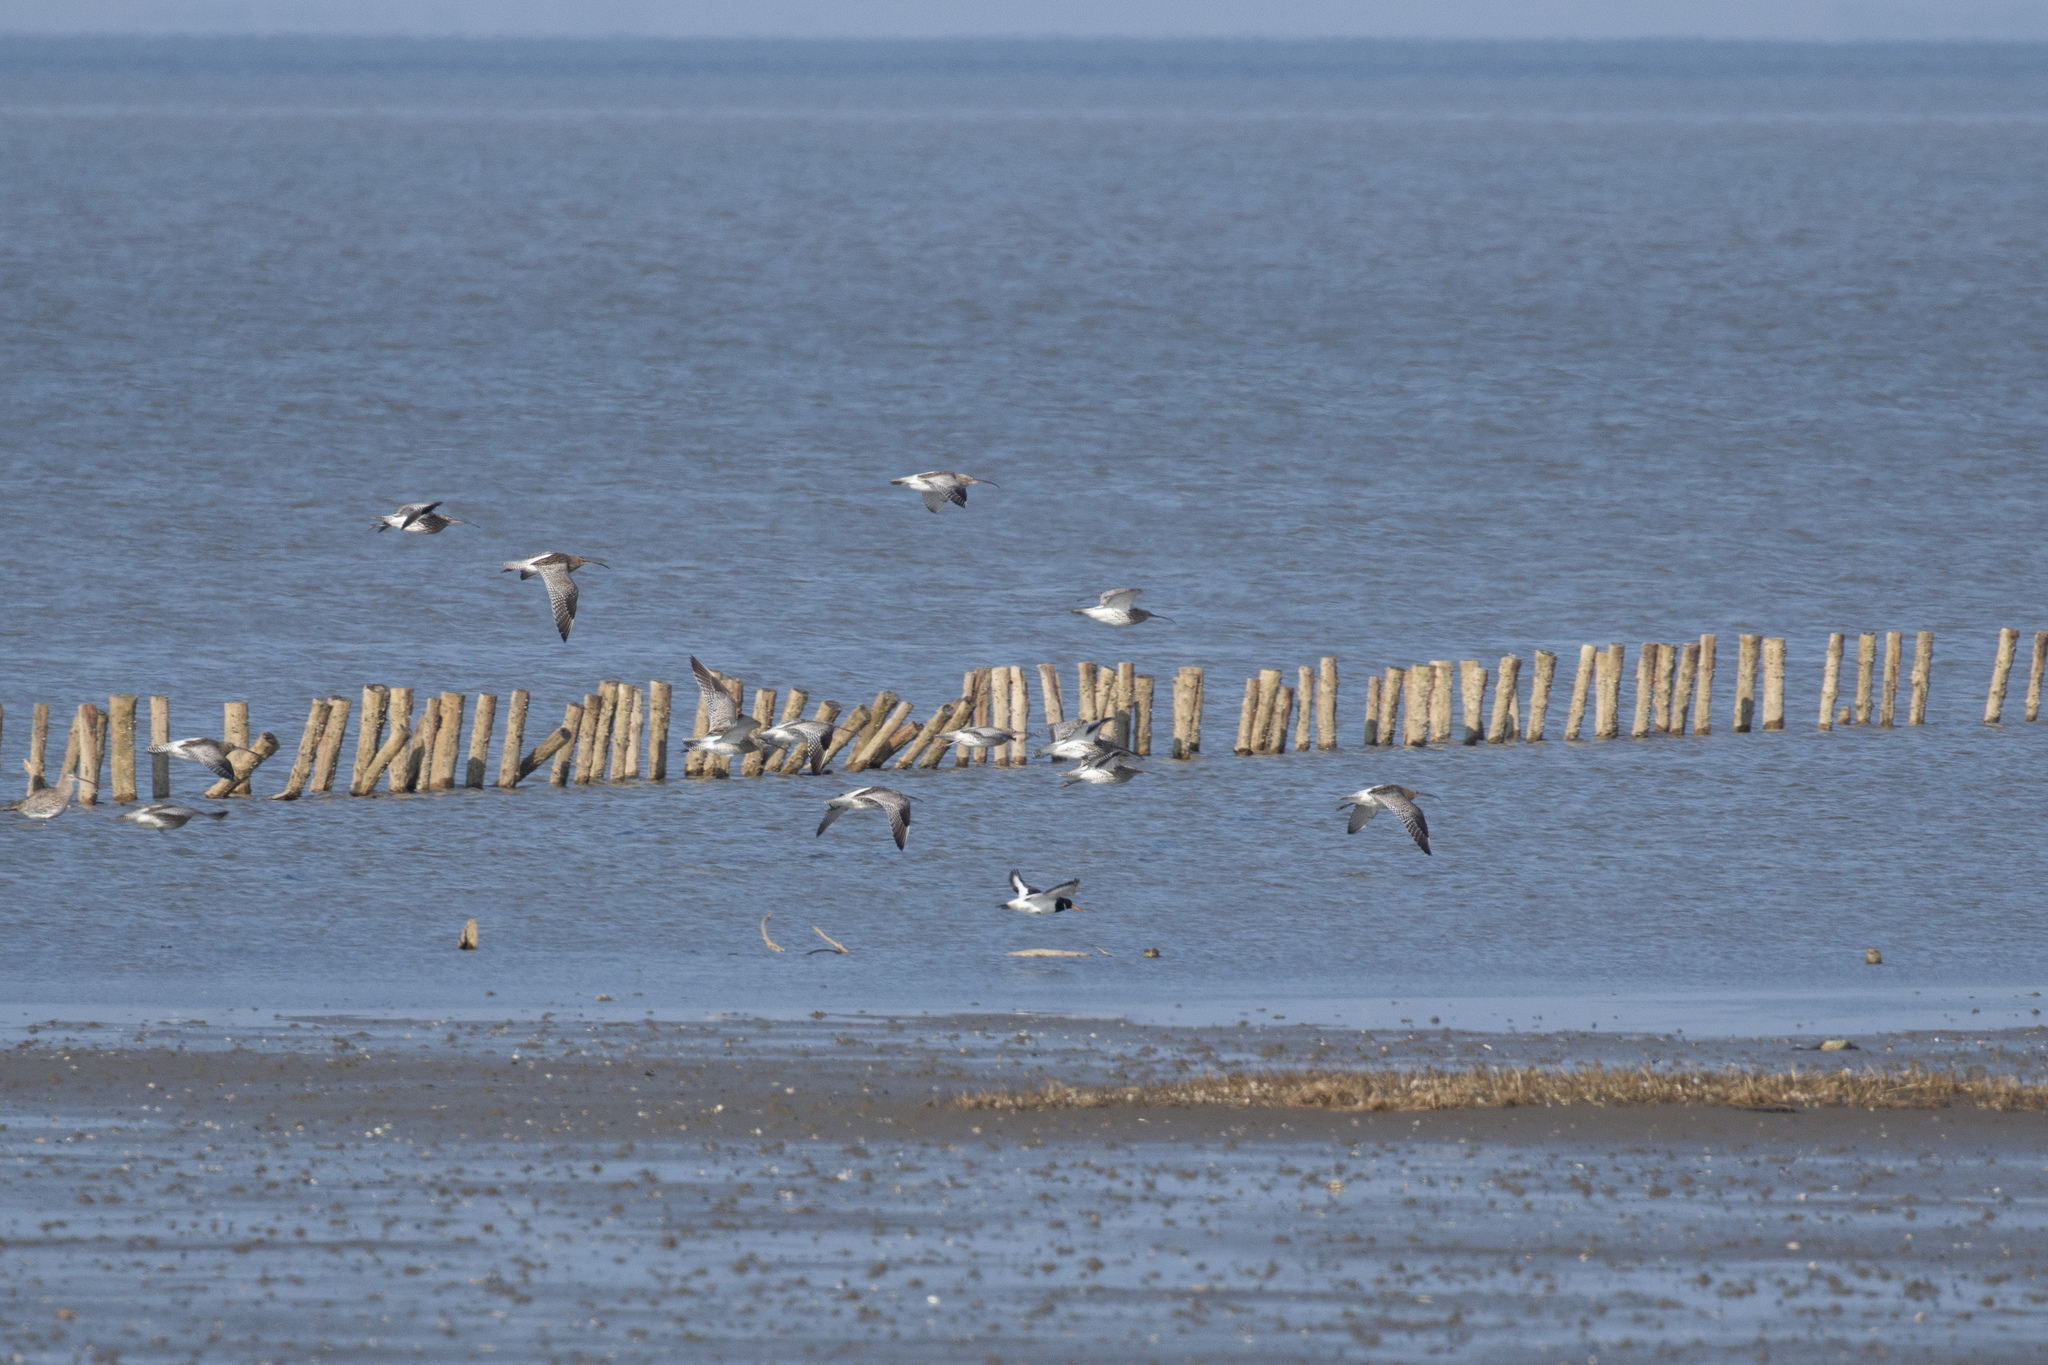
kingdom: Animalia
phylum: Chordata
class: Aves
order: Charadriiformes
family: Scolopacidae
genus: Numenius
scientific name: Numenius arquata
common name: Eurasian curlew
